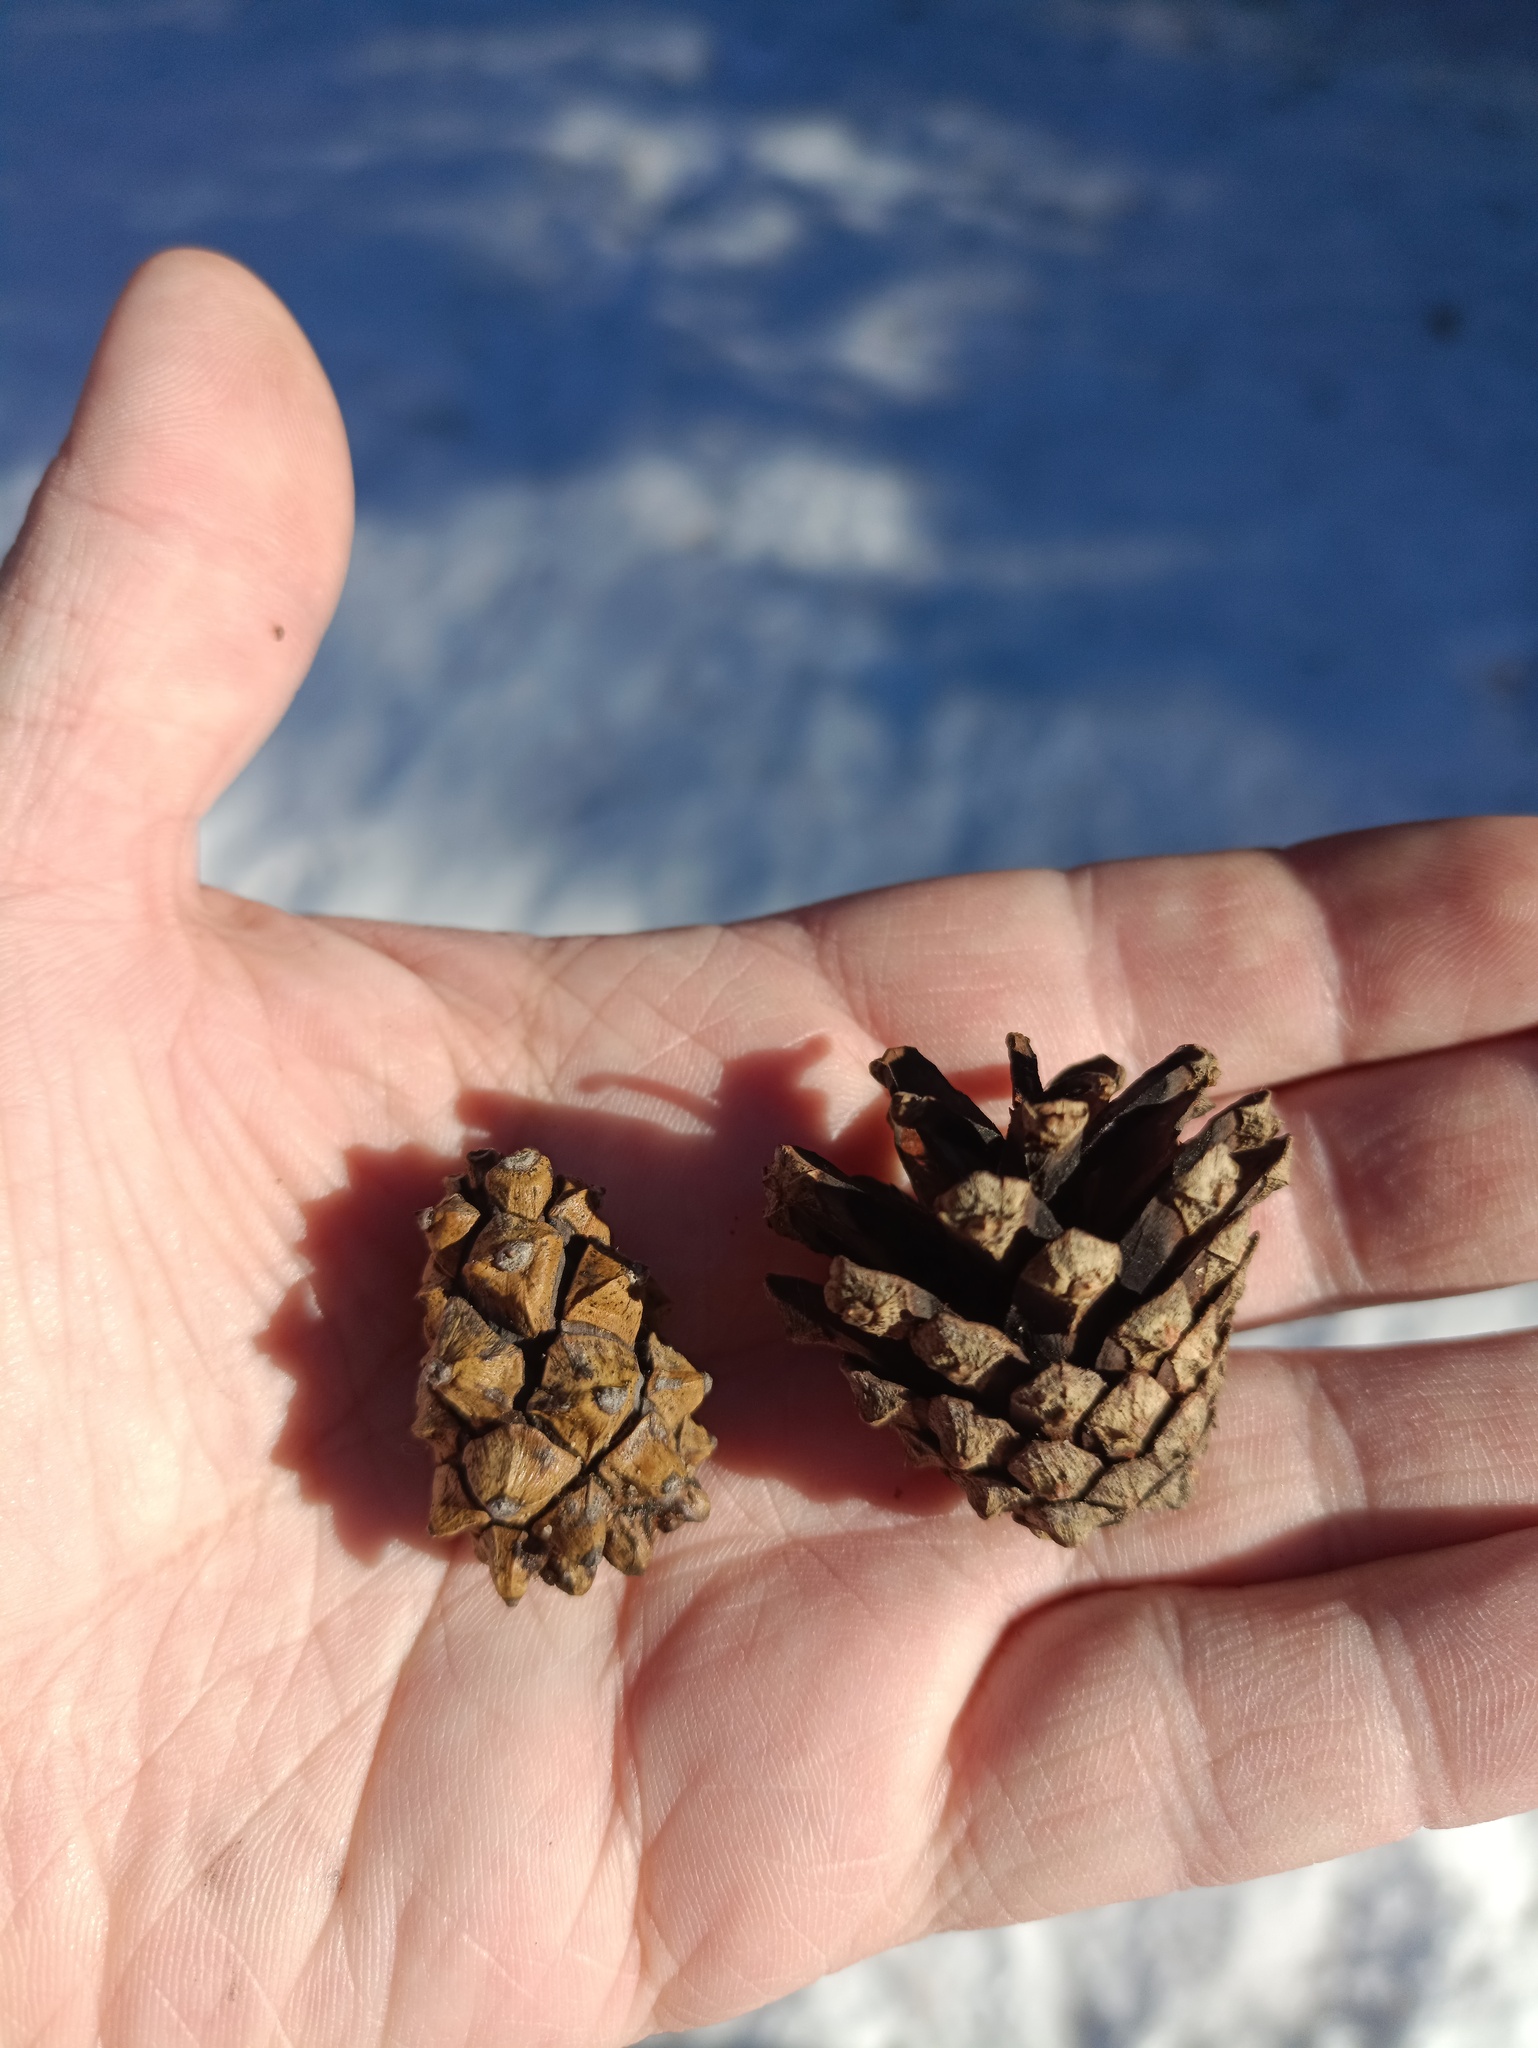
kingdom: Plantae
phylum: Tracheophyta
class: Pinopsida
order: Pinales
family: Pinaceae
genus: Pinus
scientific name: Pinus sylvestris
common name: Scots pine
